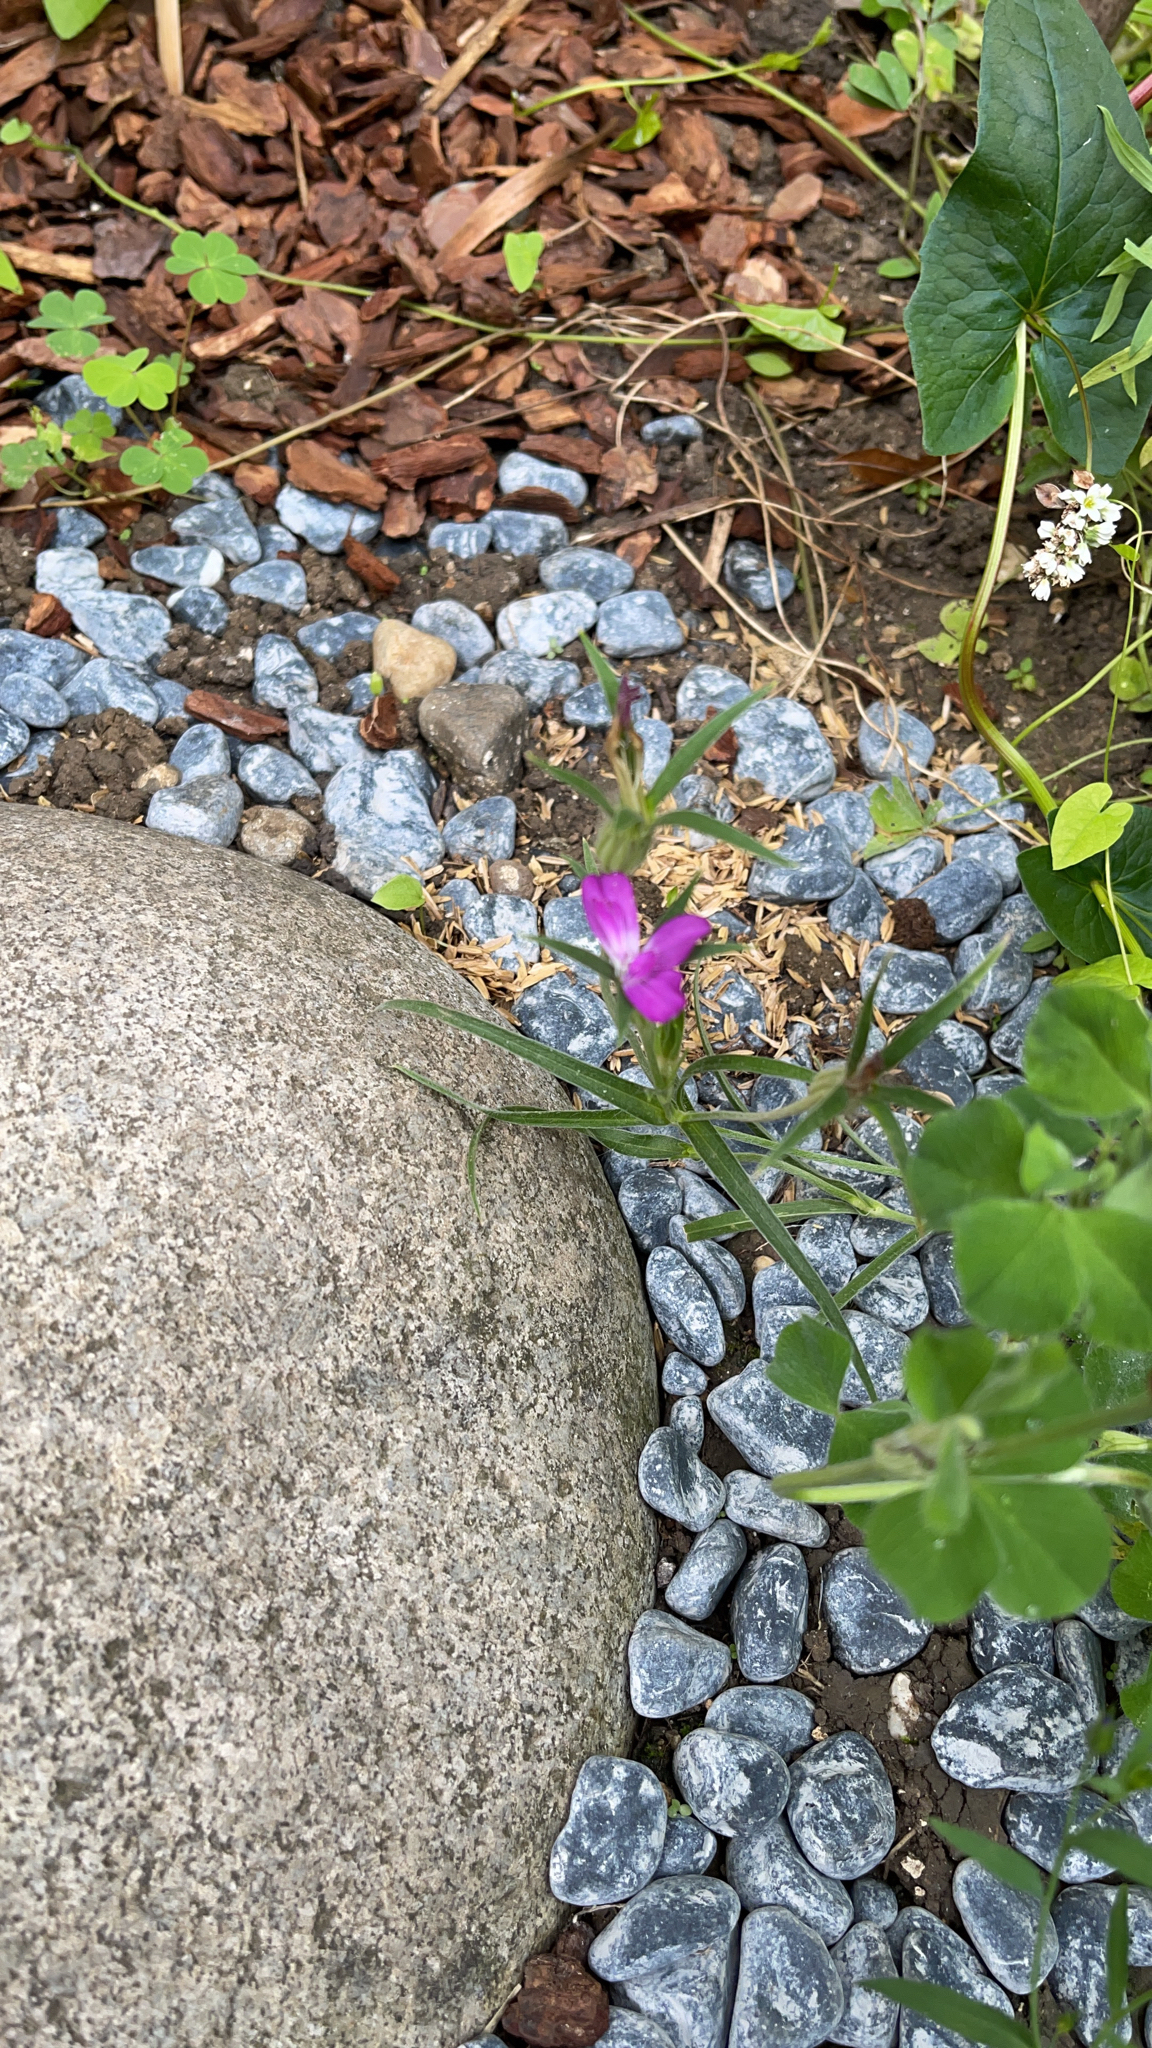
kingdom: Plantae
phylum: Tracheophyta
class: Magnoliopsida
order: Caryophyllales
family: Caryophyllaceae
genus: Agrostemma
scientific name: Agrostemma githago
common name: Common corncockle
